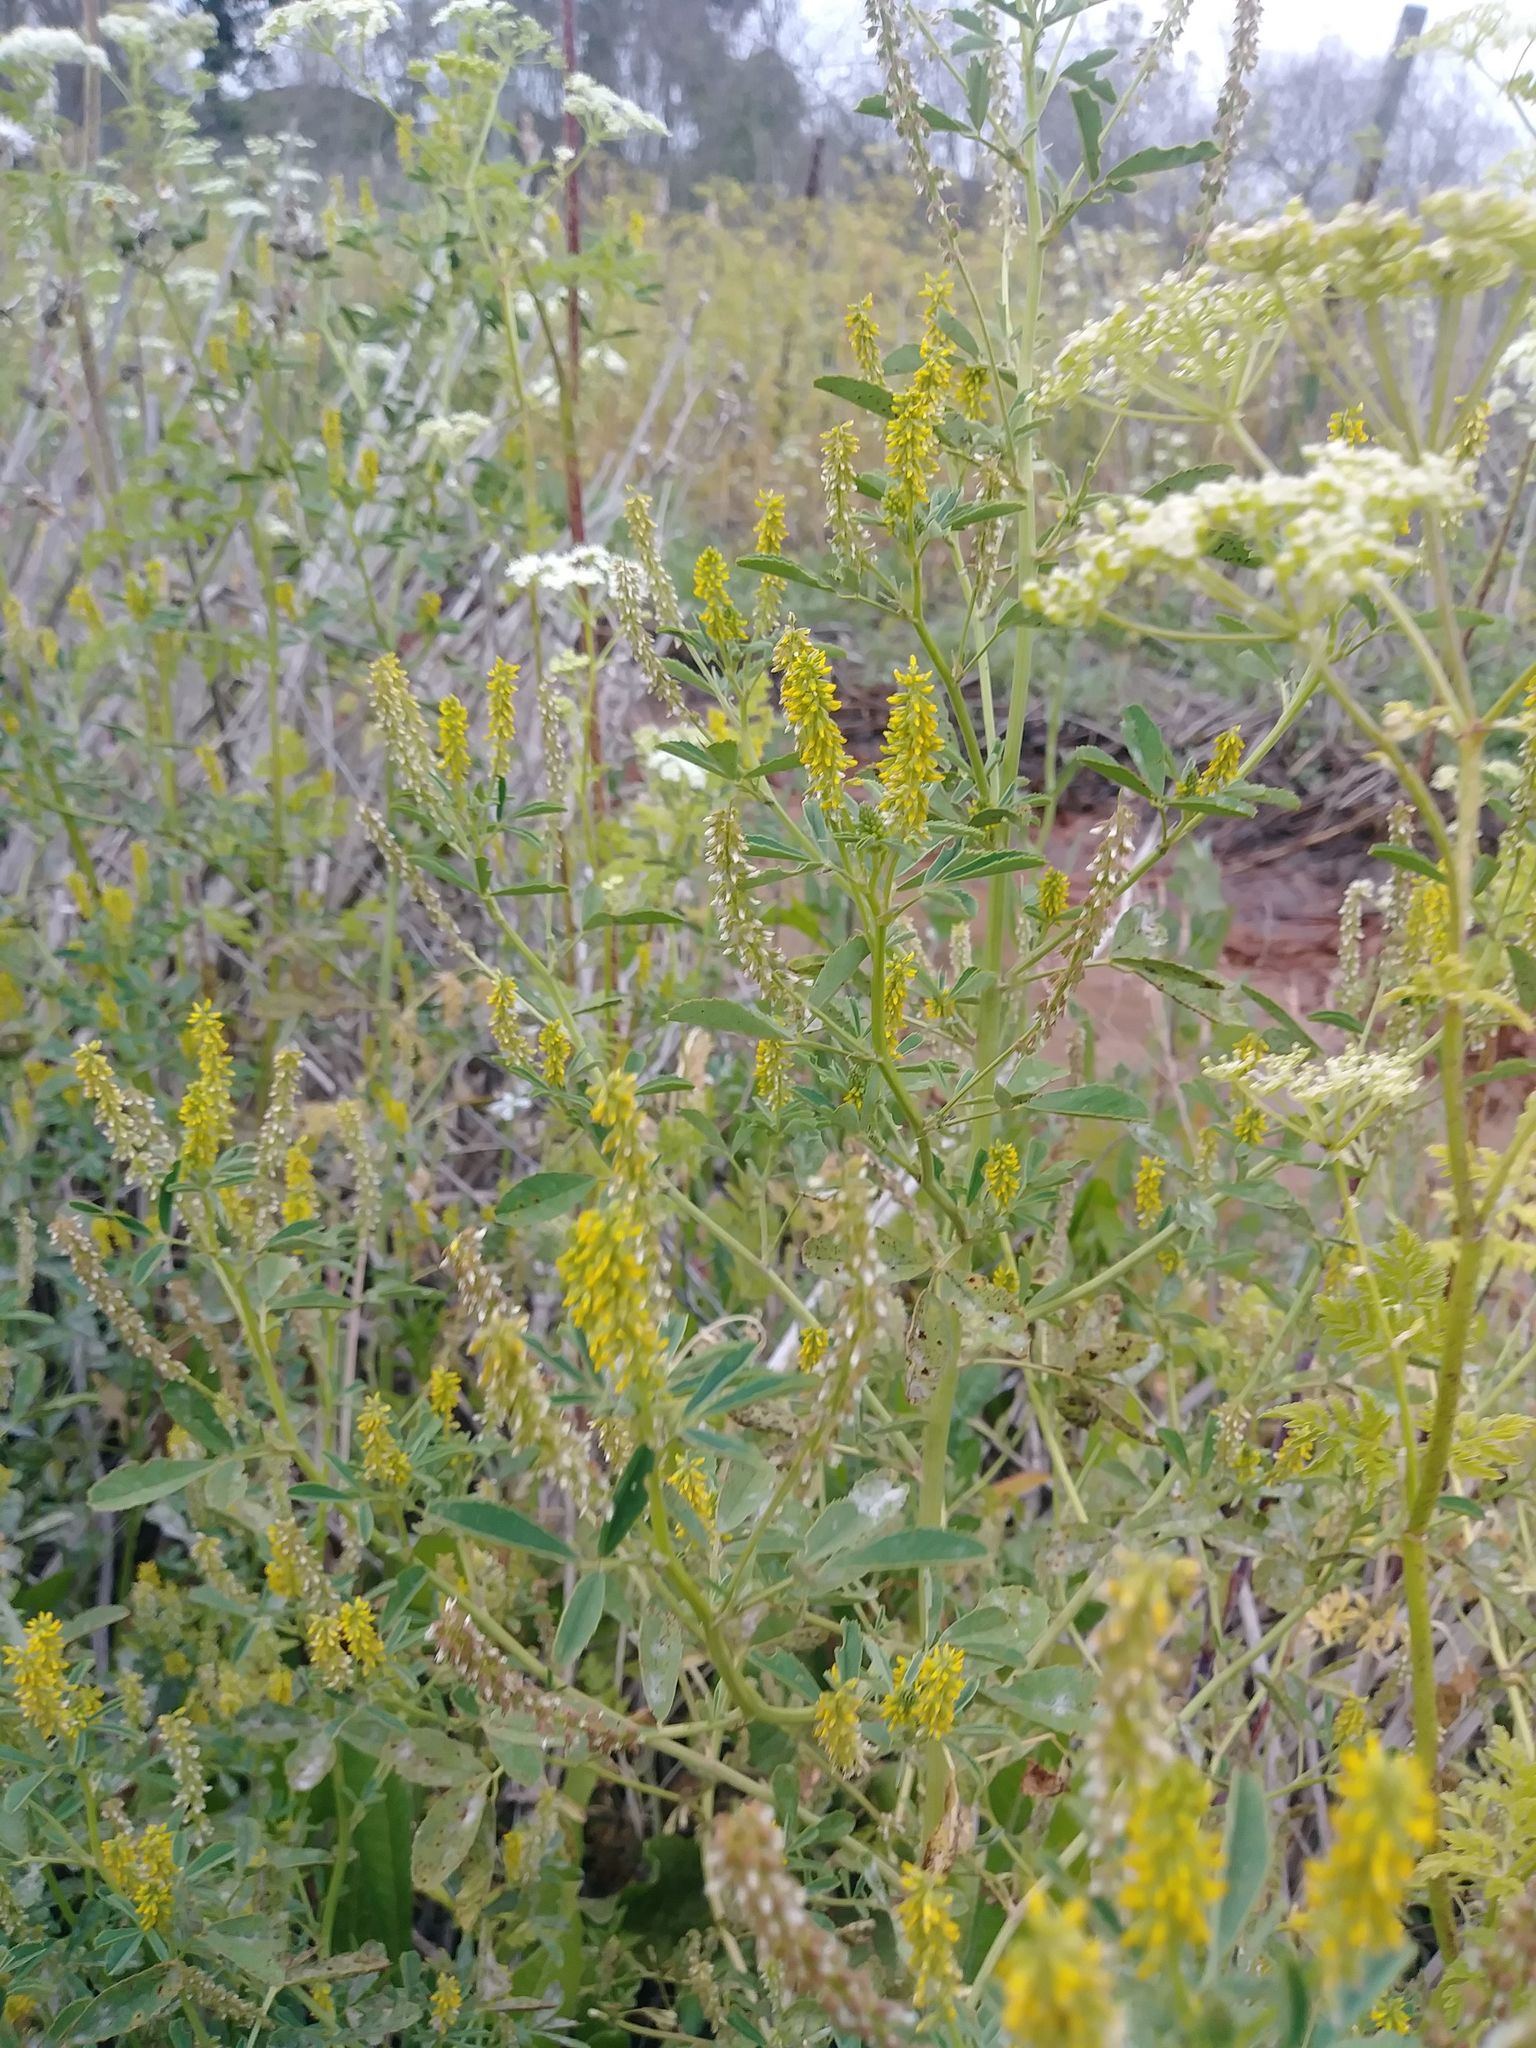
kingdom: Plantae
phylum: Tracheophyta
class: Magnoliopsida
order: Fabales
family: Fabaceae
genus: Melilotus
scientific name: Melilotus indicus
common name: Small melilot
